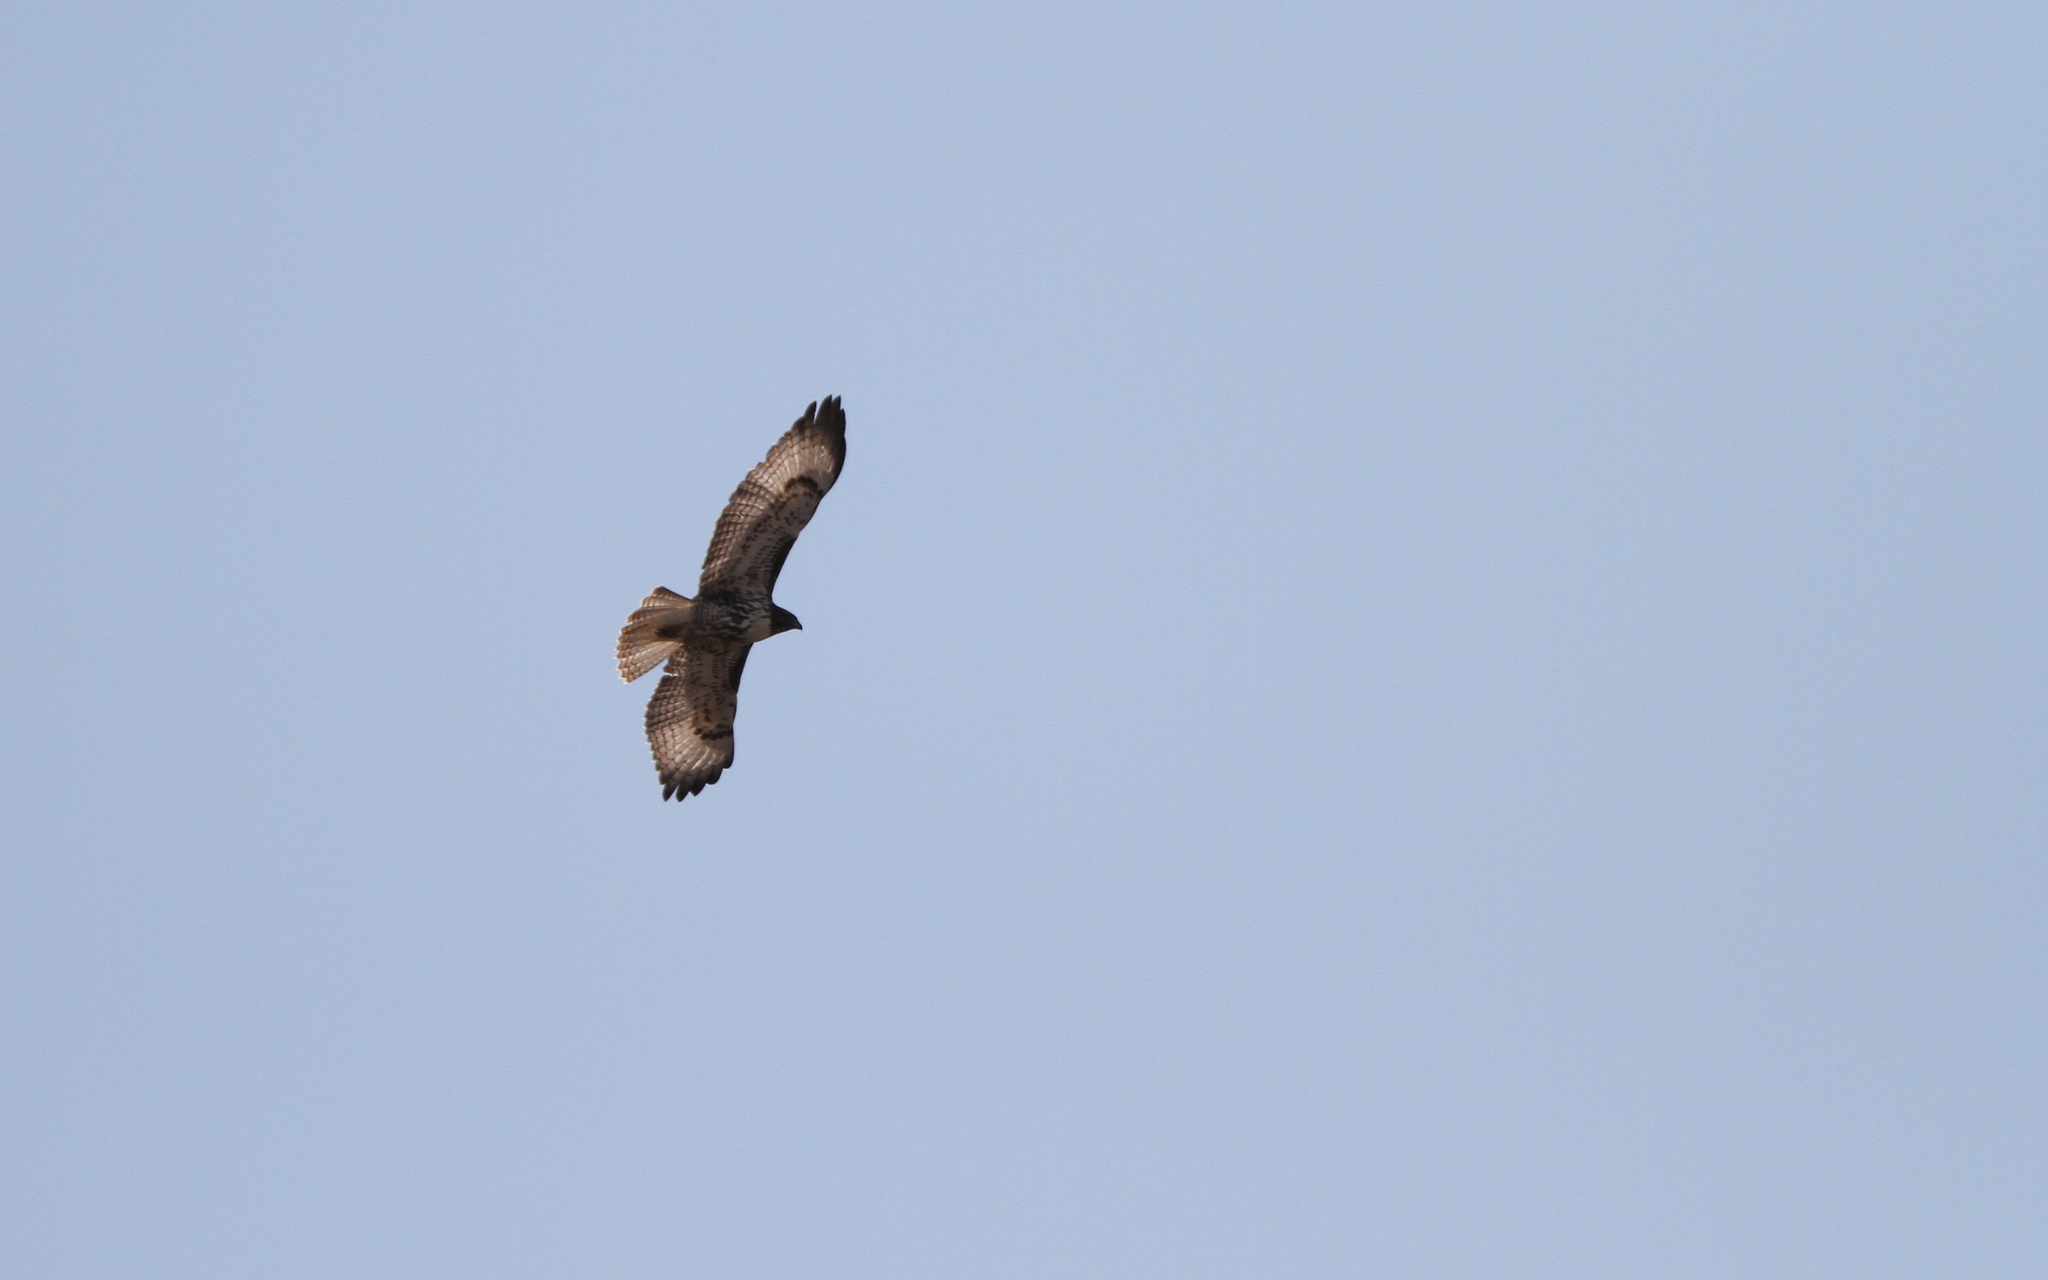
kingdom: Animalia
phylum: Chordata
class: Aves
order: Accipitriformes
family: Accipitridae
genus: Buteo
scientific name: Buteo jamaicensis
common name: Red-tailed hawk
